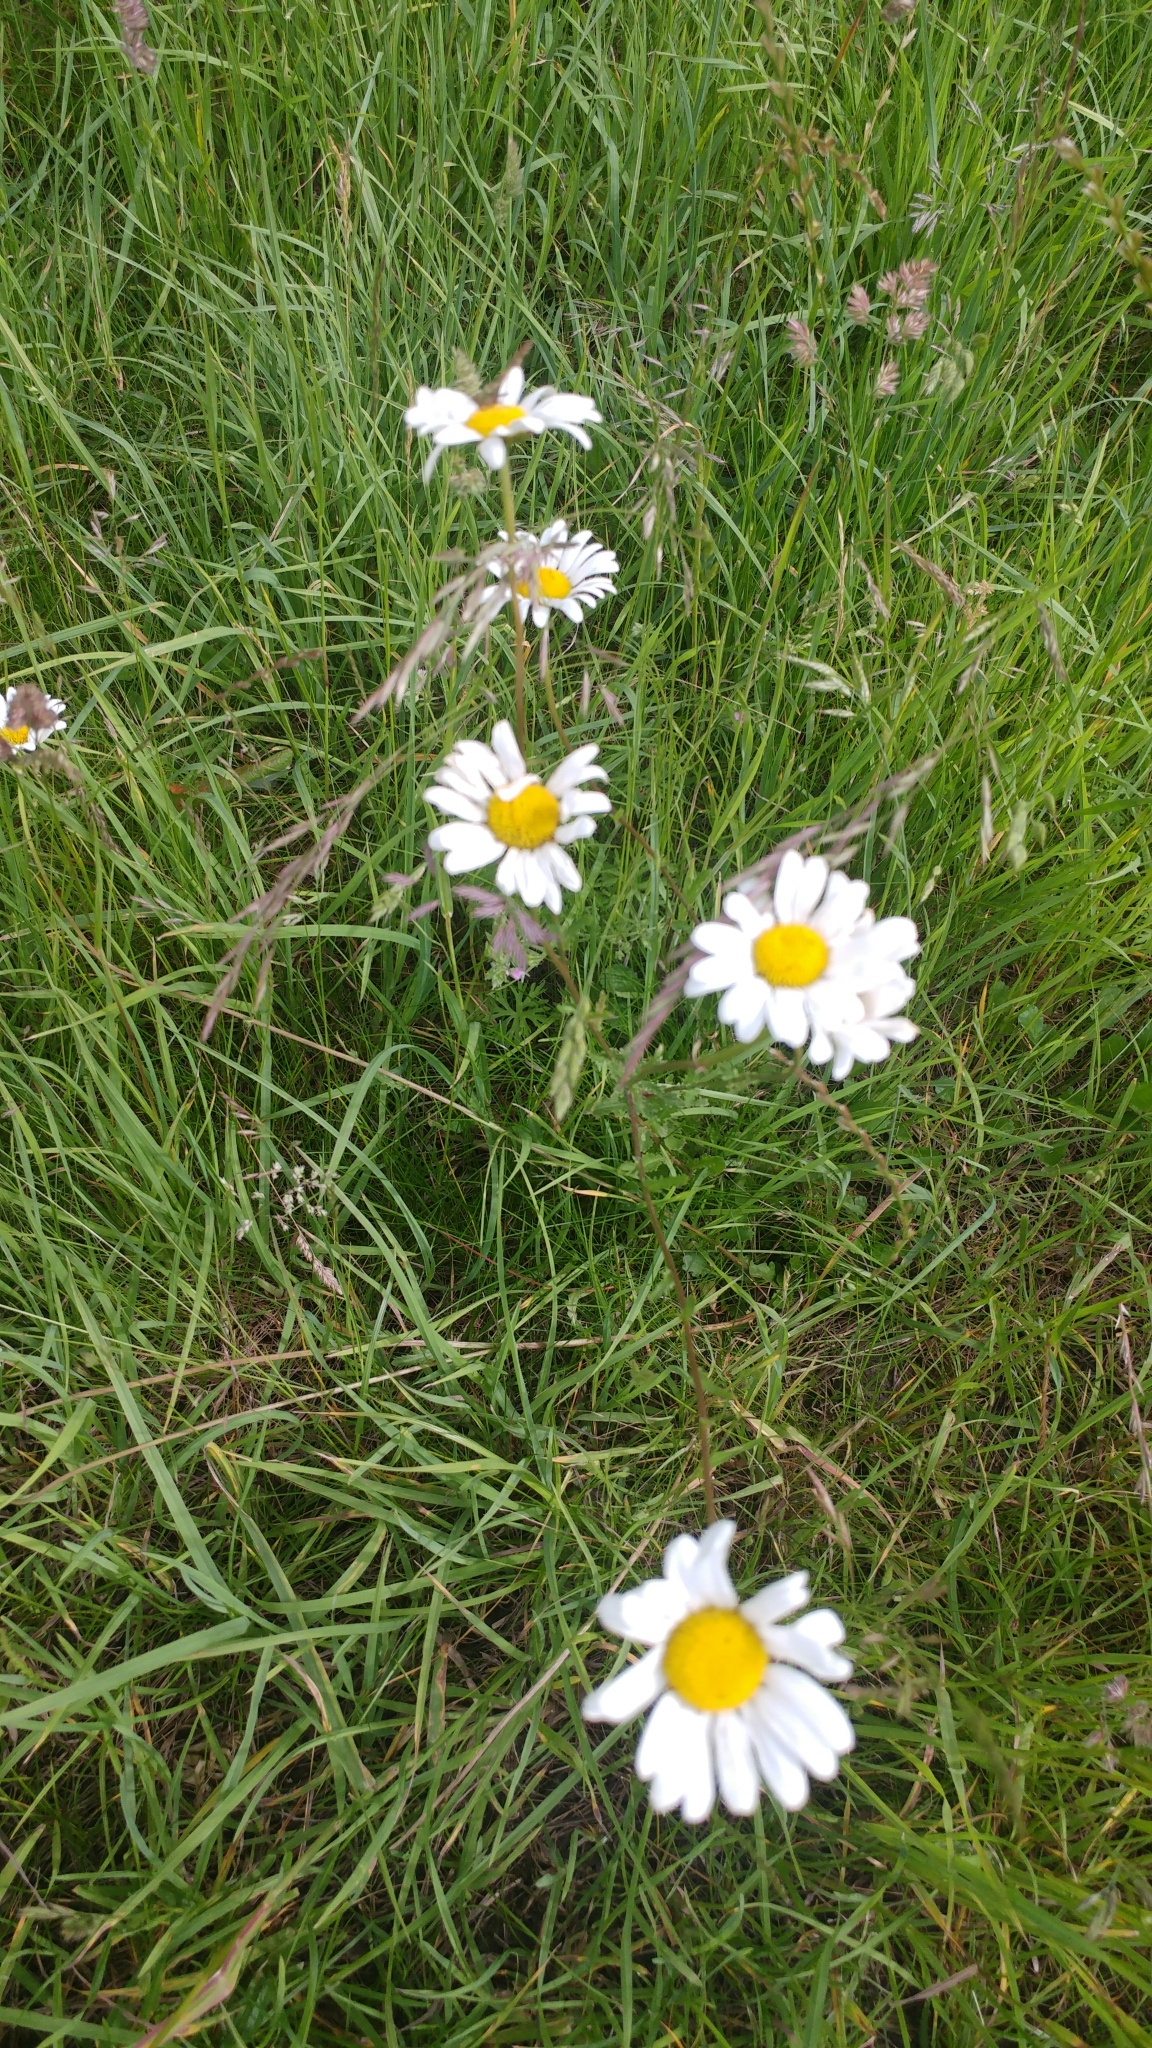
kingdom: Plantae
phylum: Tracheophyta
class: Magnoliopsida
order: Asterales
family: Asteraceae
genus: Leucanthemum
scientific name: Leucanthemum vulgare
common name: Oxeye daisy
